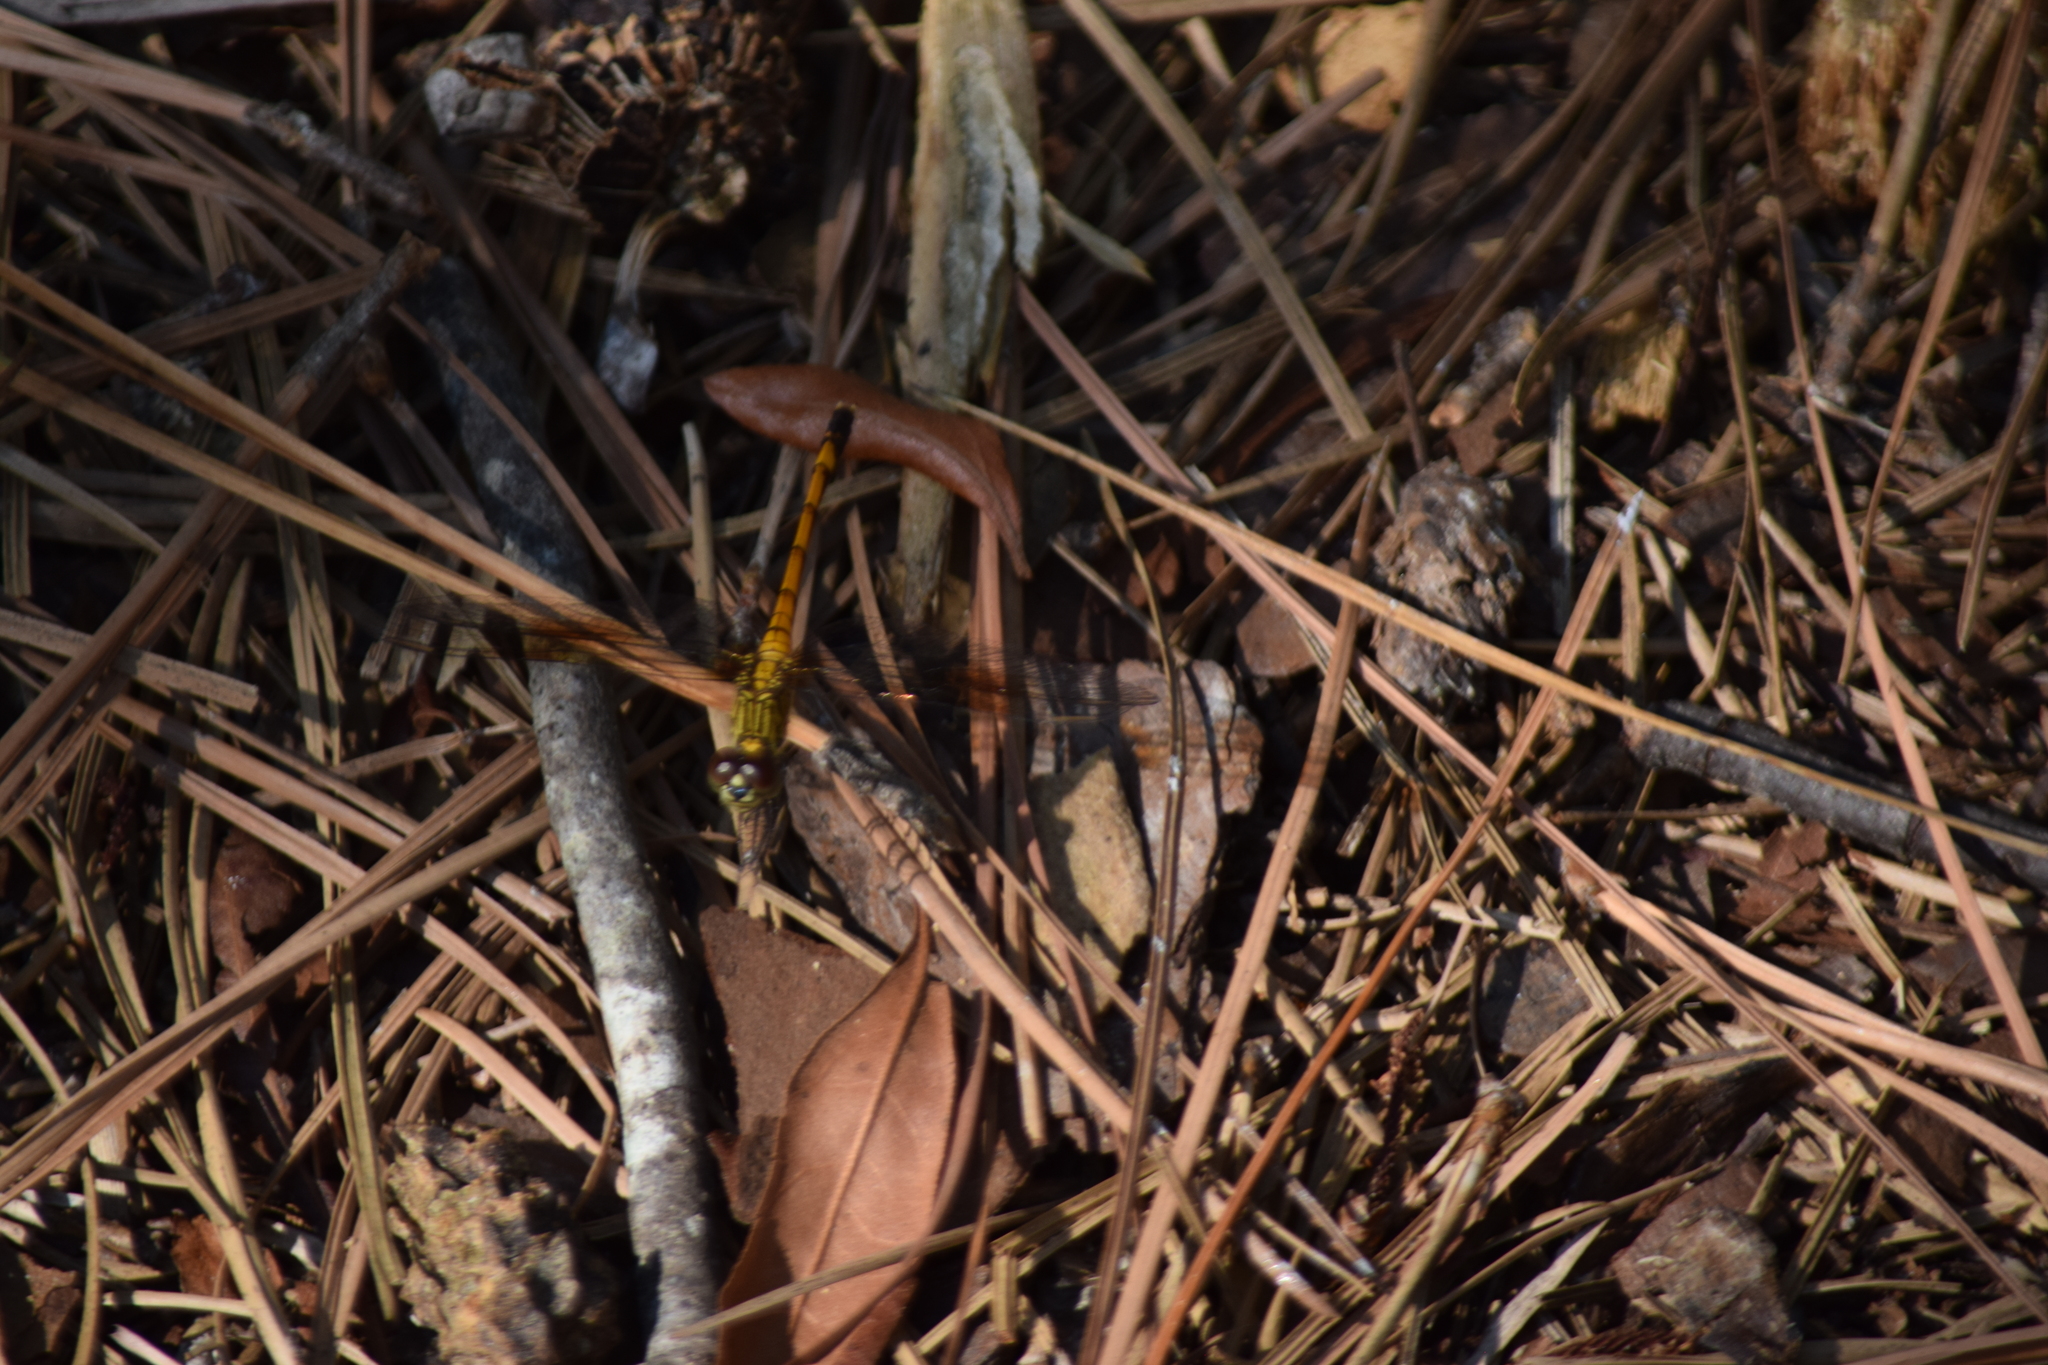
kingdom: Animalia
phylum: Arthropoda
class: Insecta
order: Odonata
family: Libellulidae
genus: Erythrodiplax
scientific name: Erythrodiplax berenice
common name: Seaside dragonlet
